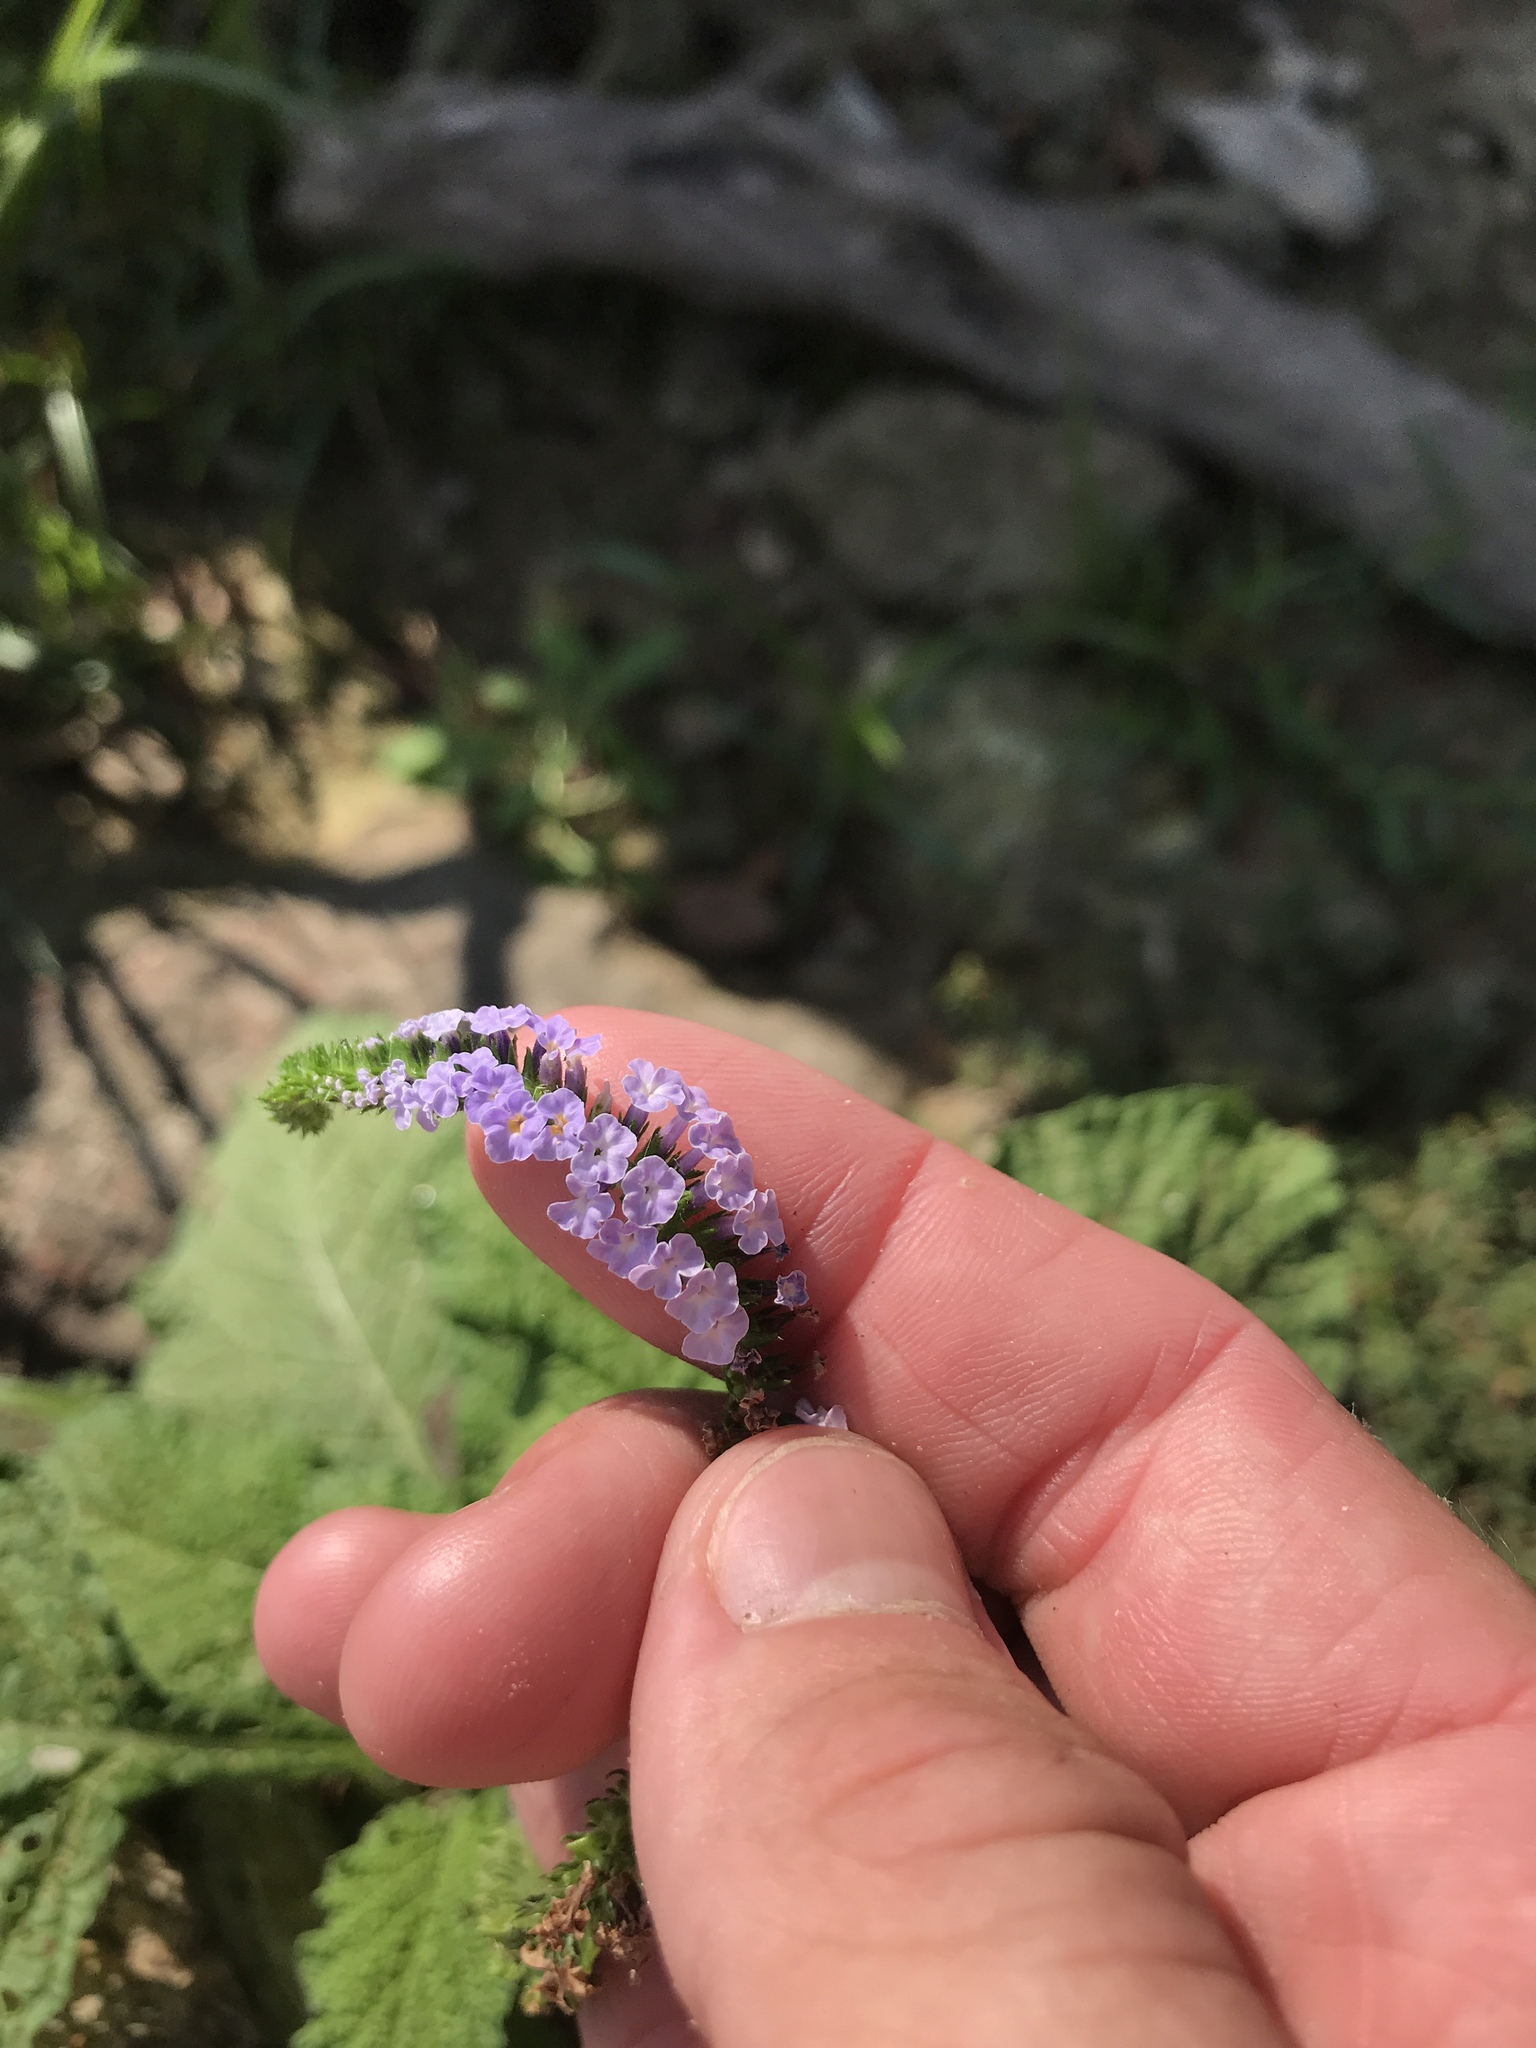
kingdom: Plantae
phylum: Tracheophyta
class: Magnoliopsida
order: Boraginales
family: Heliotropiaceae
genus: Heliotropium
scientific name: Heliotropium indicum
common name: Indian heliotrope
